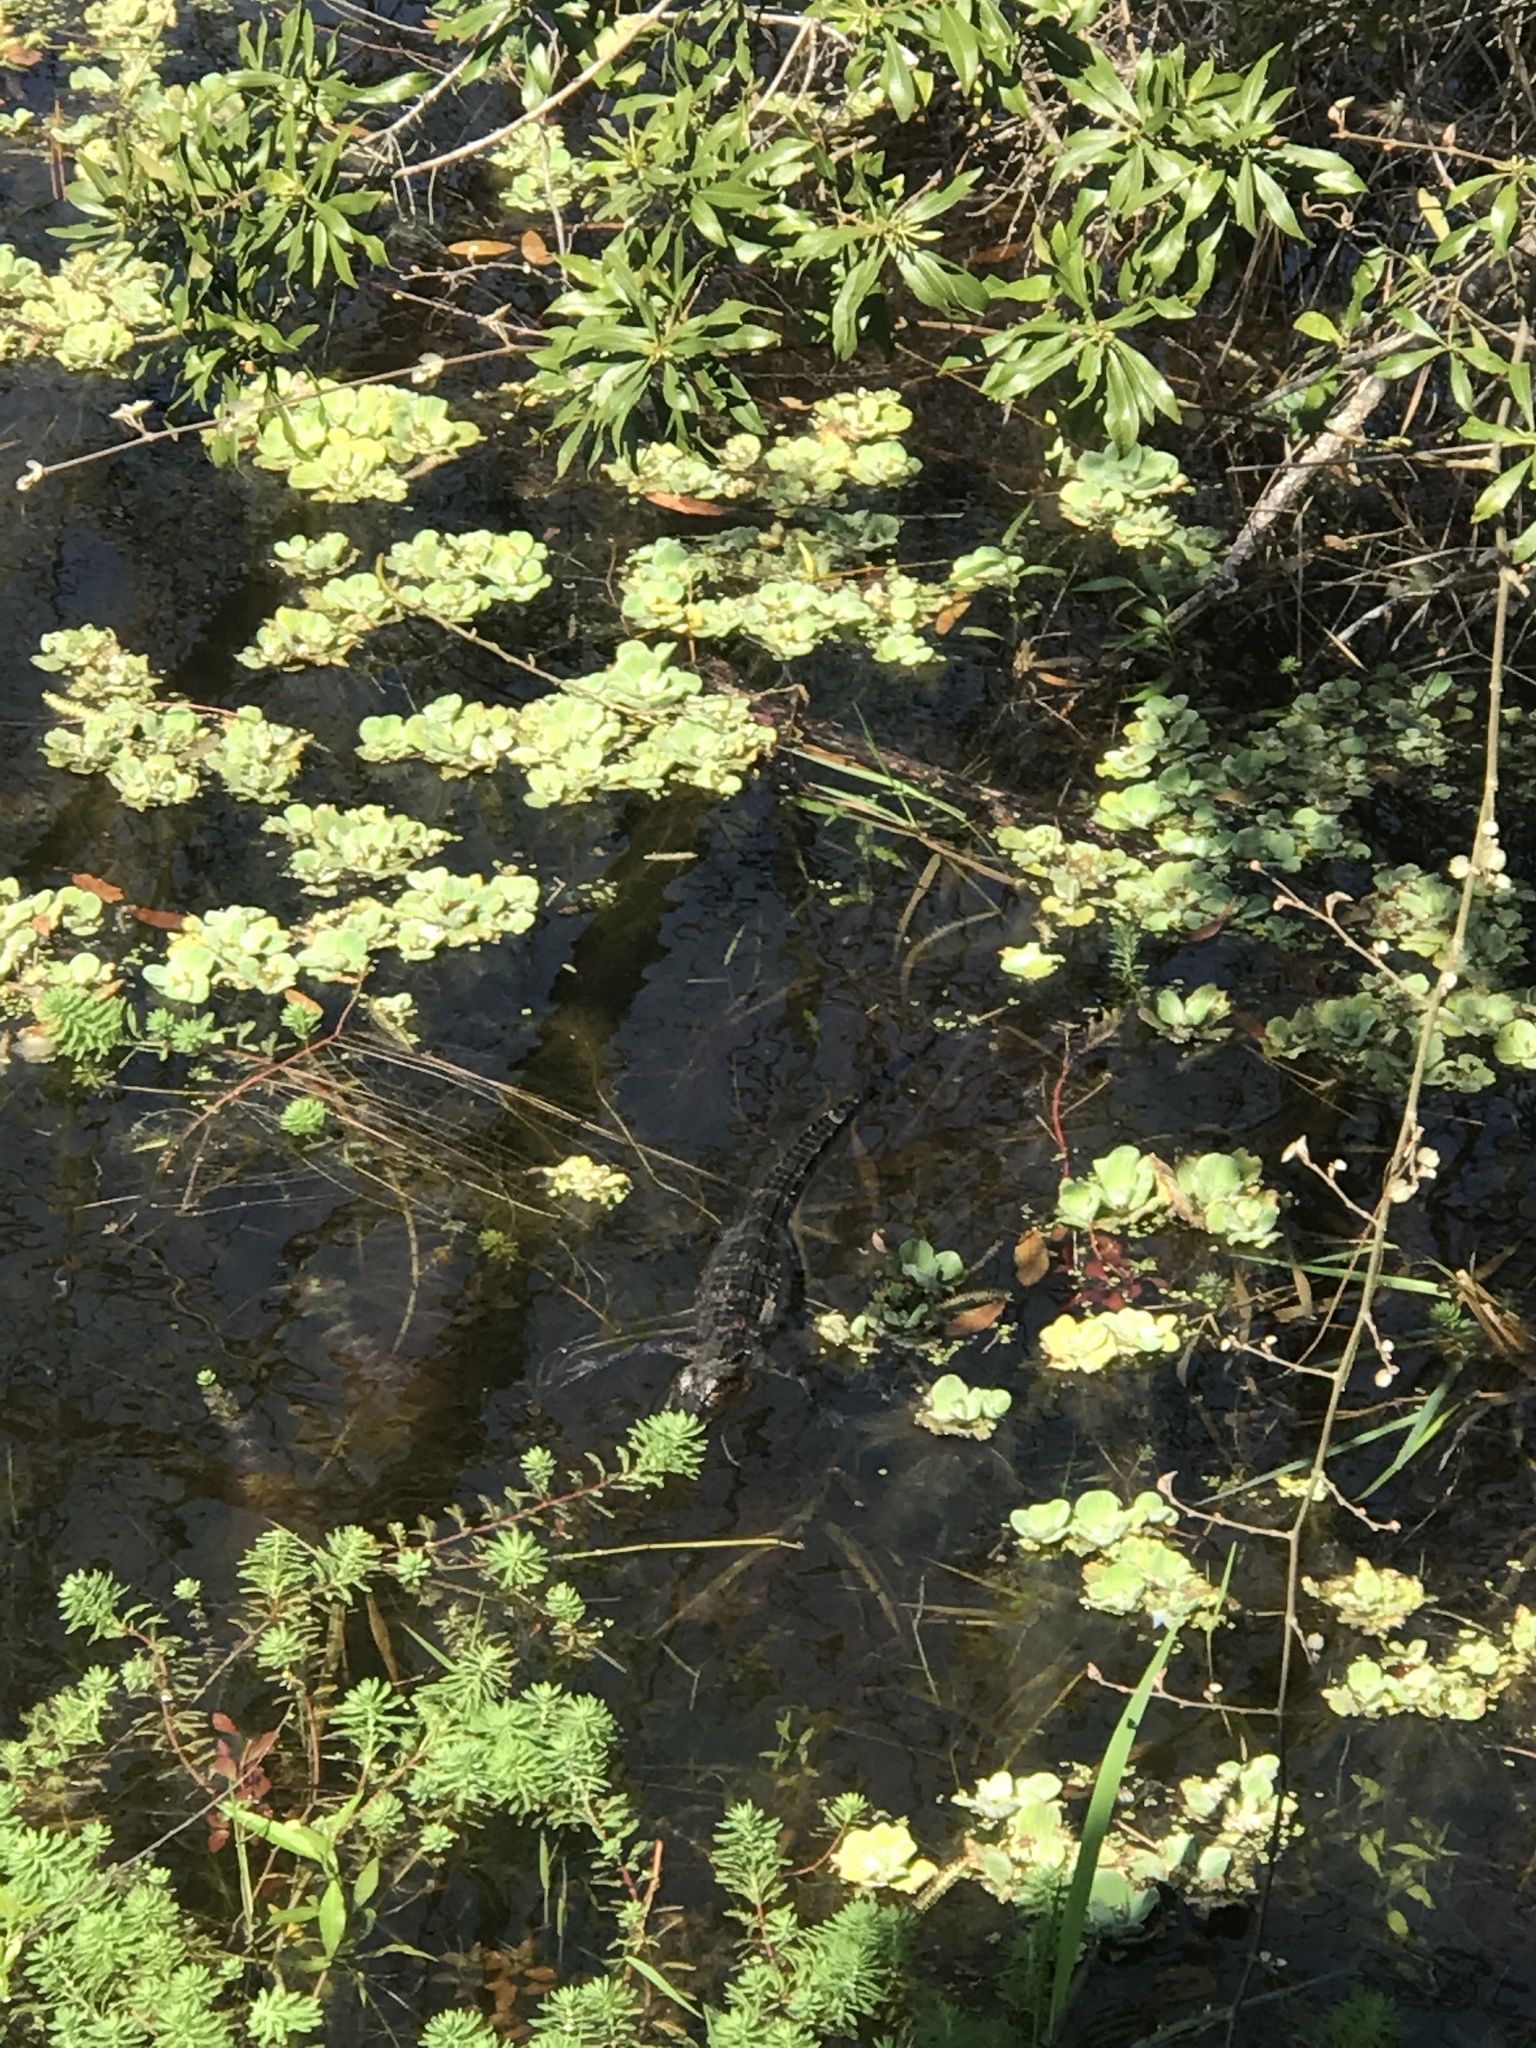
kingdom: Animalia
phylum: Chordata
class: Crocodylia
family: Alligatoridae
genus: Alligator
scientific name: Alligator mississippiensis
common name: American alligator
